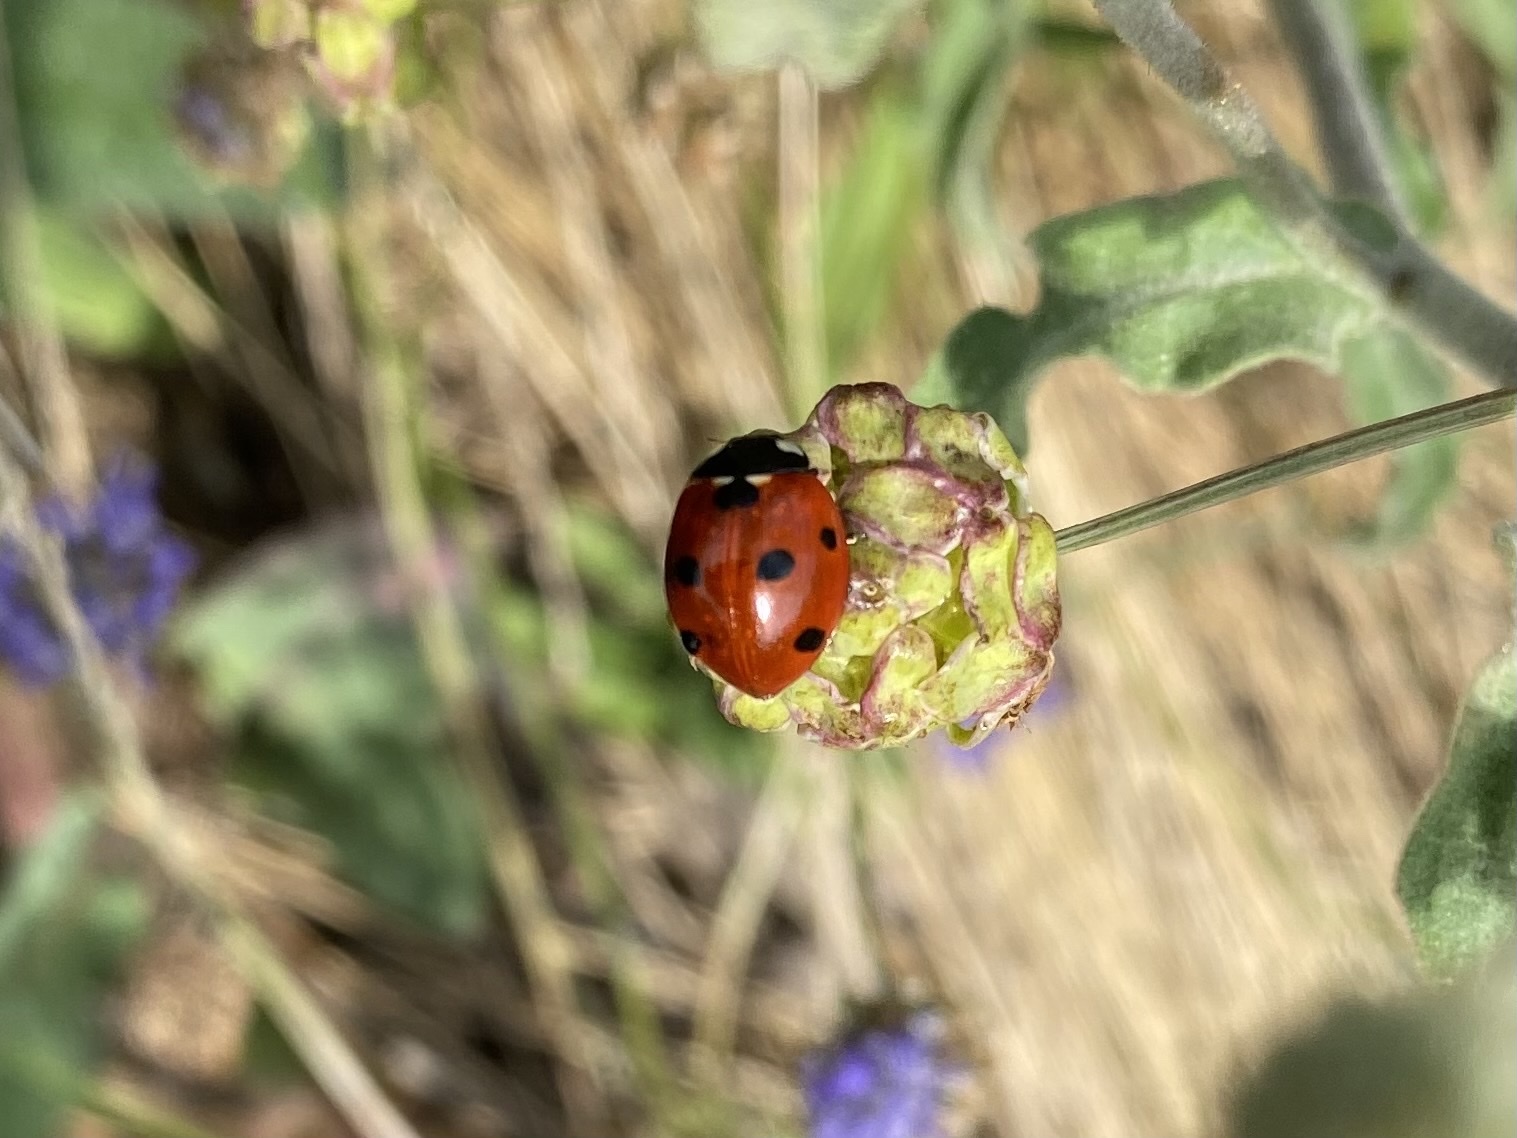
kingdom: Animalia
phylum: Arthropoda
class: Insecta
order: Coleoptera
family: Coccinellidae
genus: Coccinella
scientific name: Coccinella septempunctata
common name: Sevenspotted lady beetle
